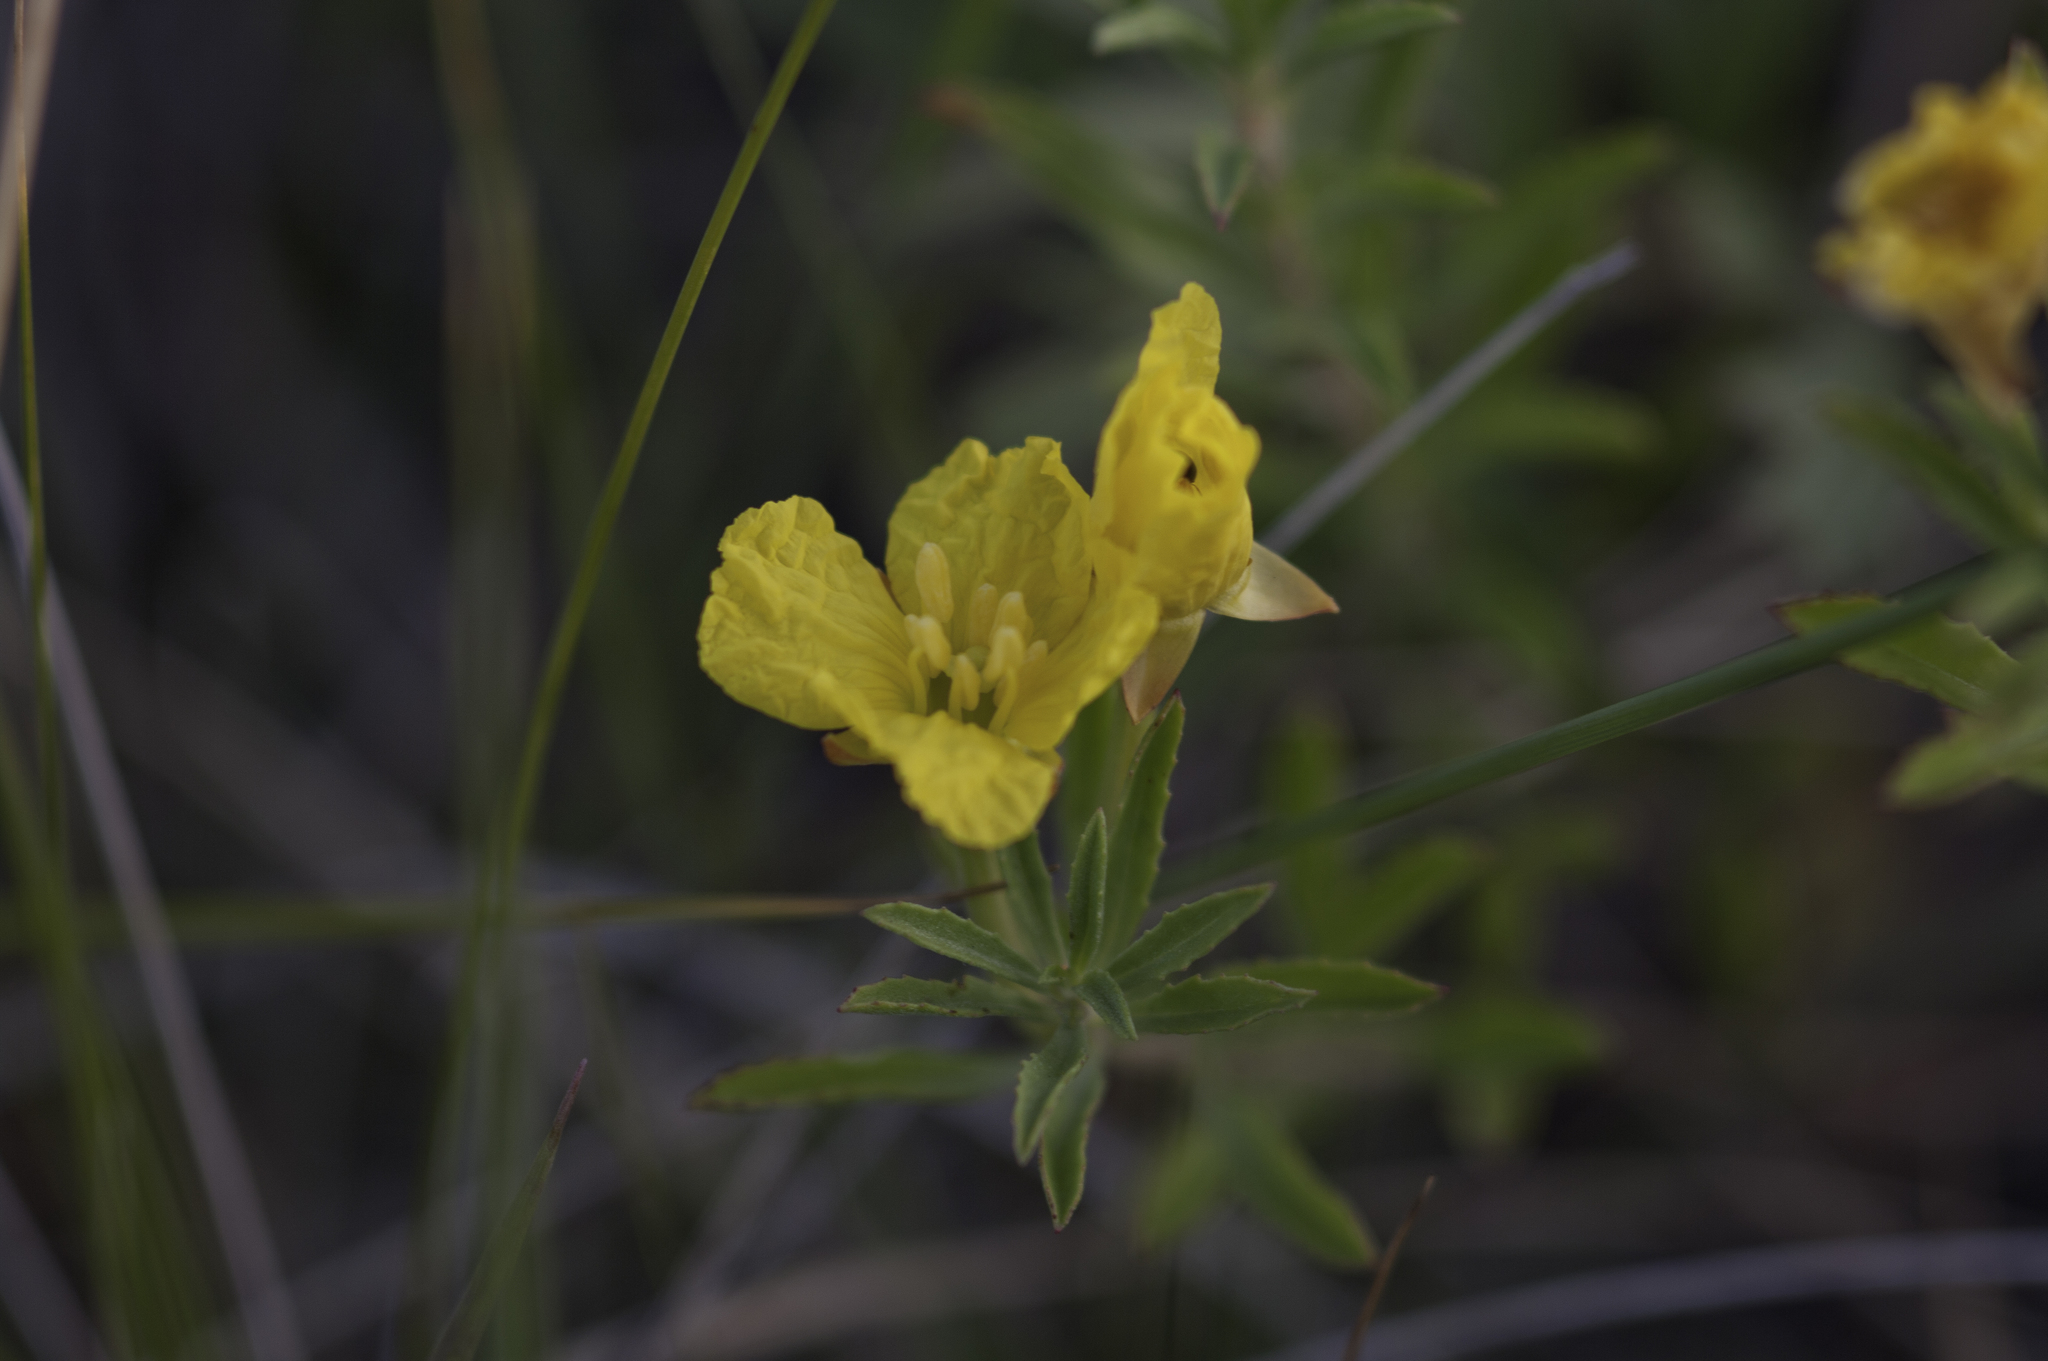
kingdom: Plantae
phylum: Tracheophyta
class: Magnoliopsida
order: Myrtales
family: Onagraceae
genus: Oenothera
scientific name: Oenothera serrulata
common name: Half-shrub calylophus
